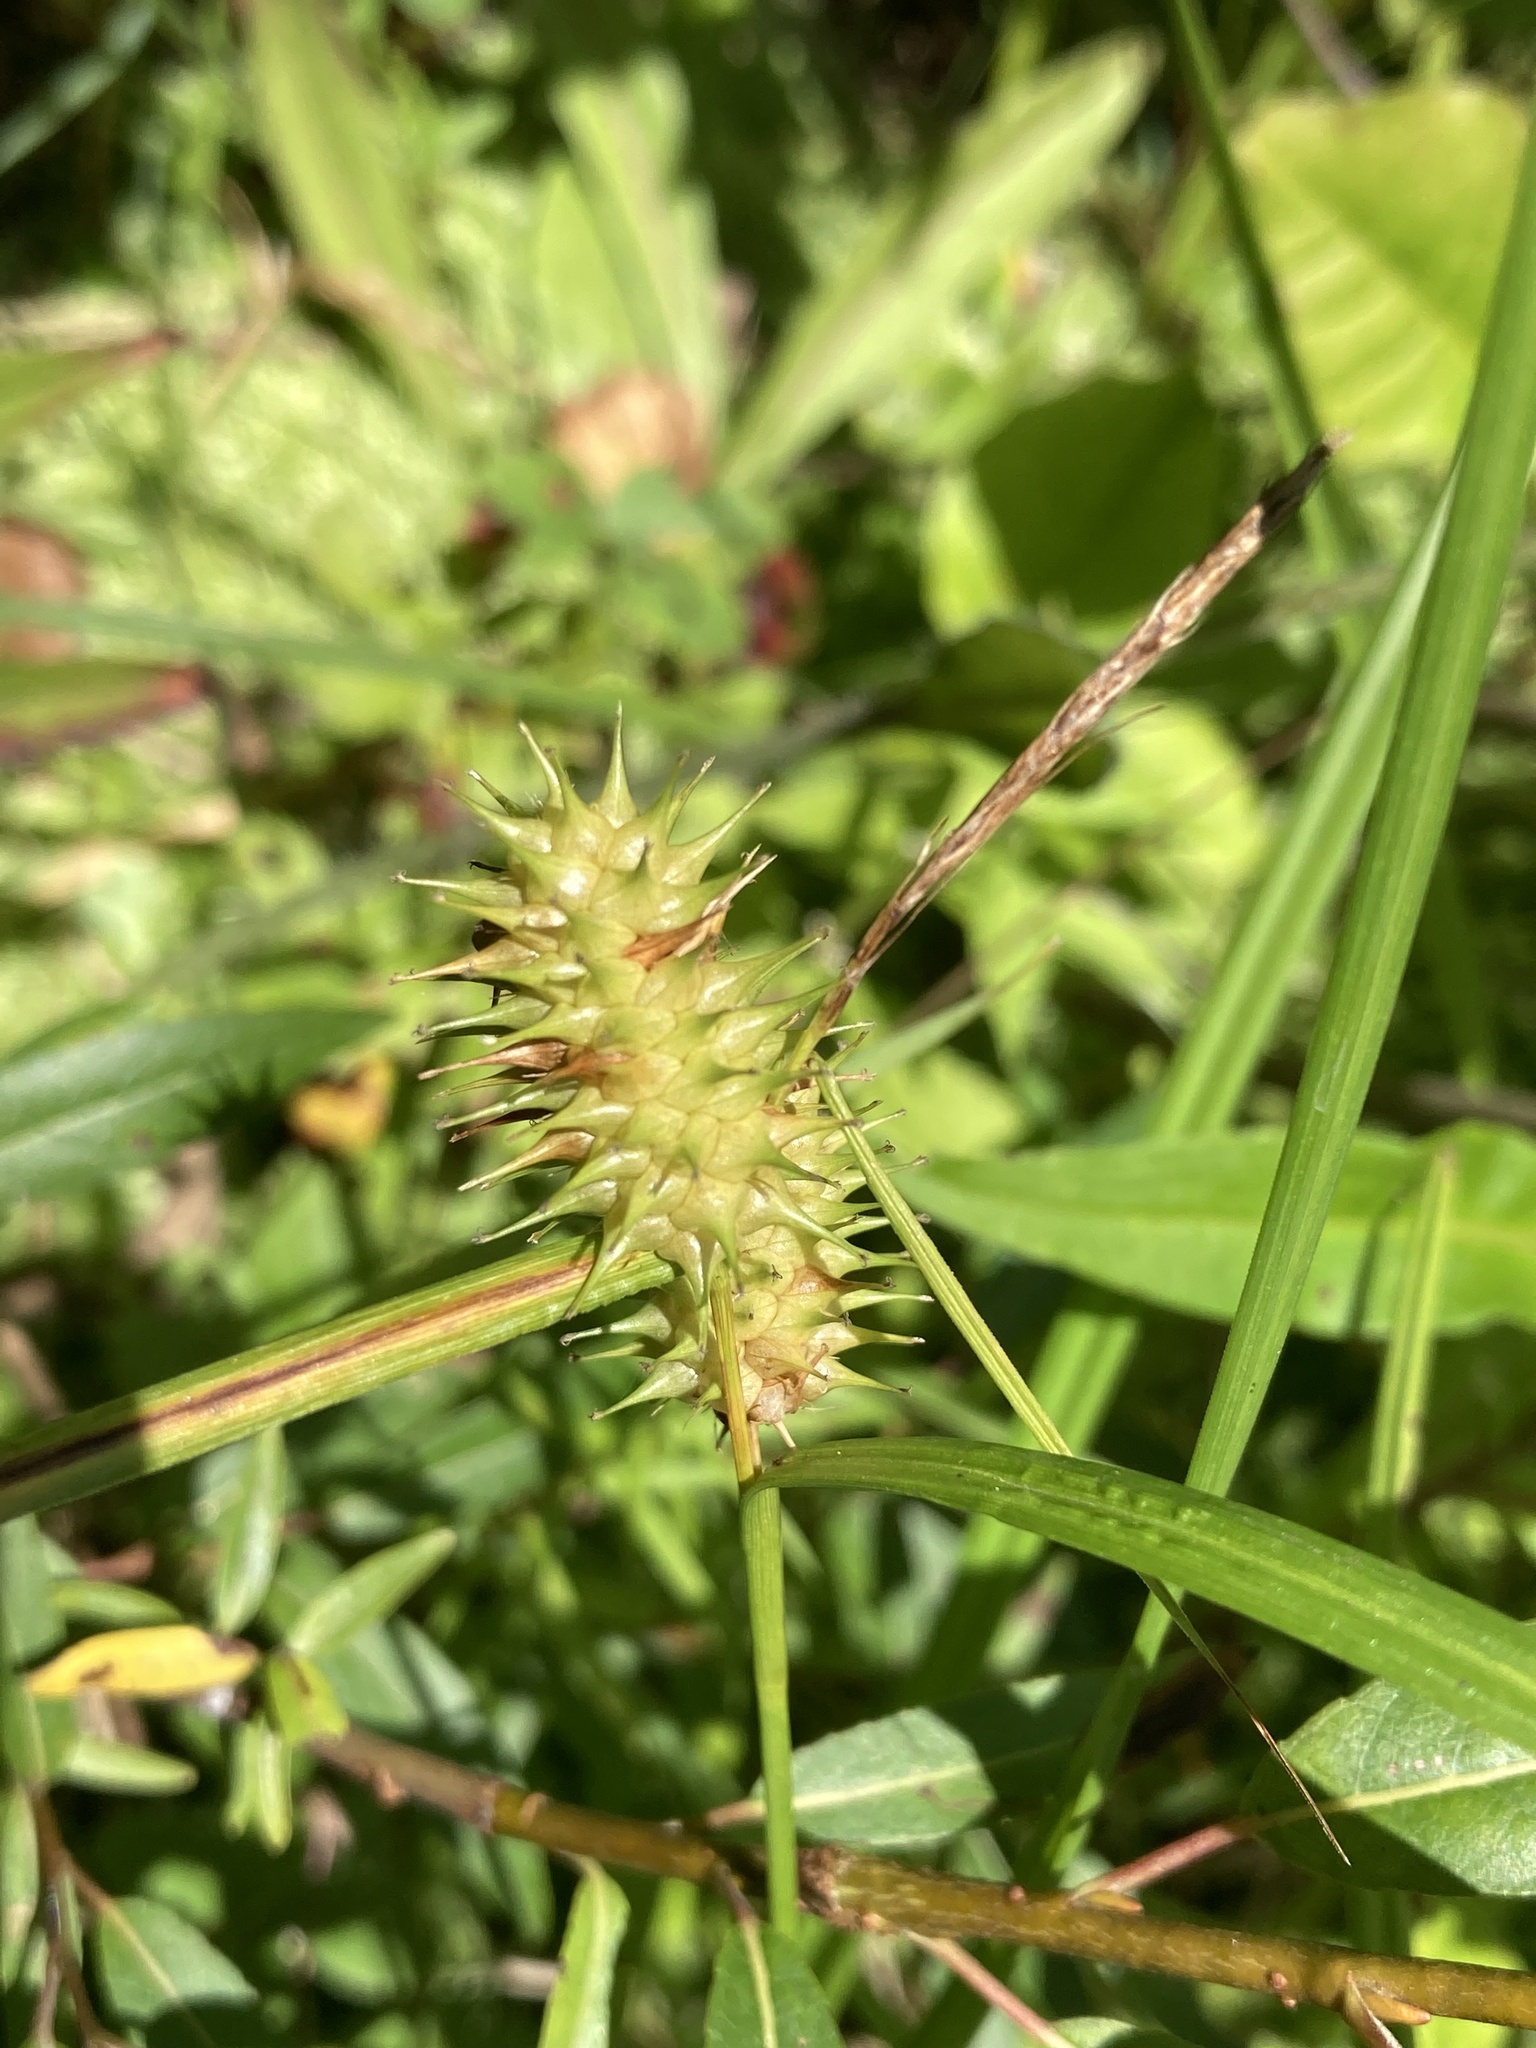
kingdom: Plantae
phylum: Tracheophyta
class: Liliopsida
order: Poales
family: Cyperaceae
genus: Carex
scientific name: Carex lurida
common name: Sallow sedge
